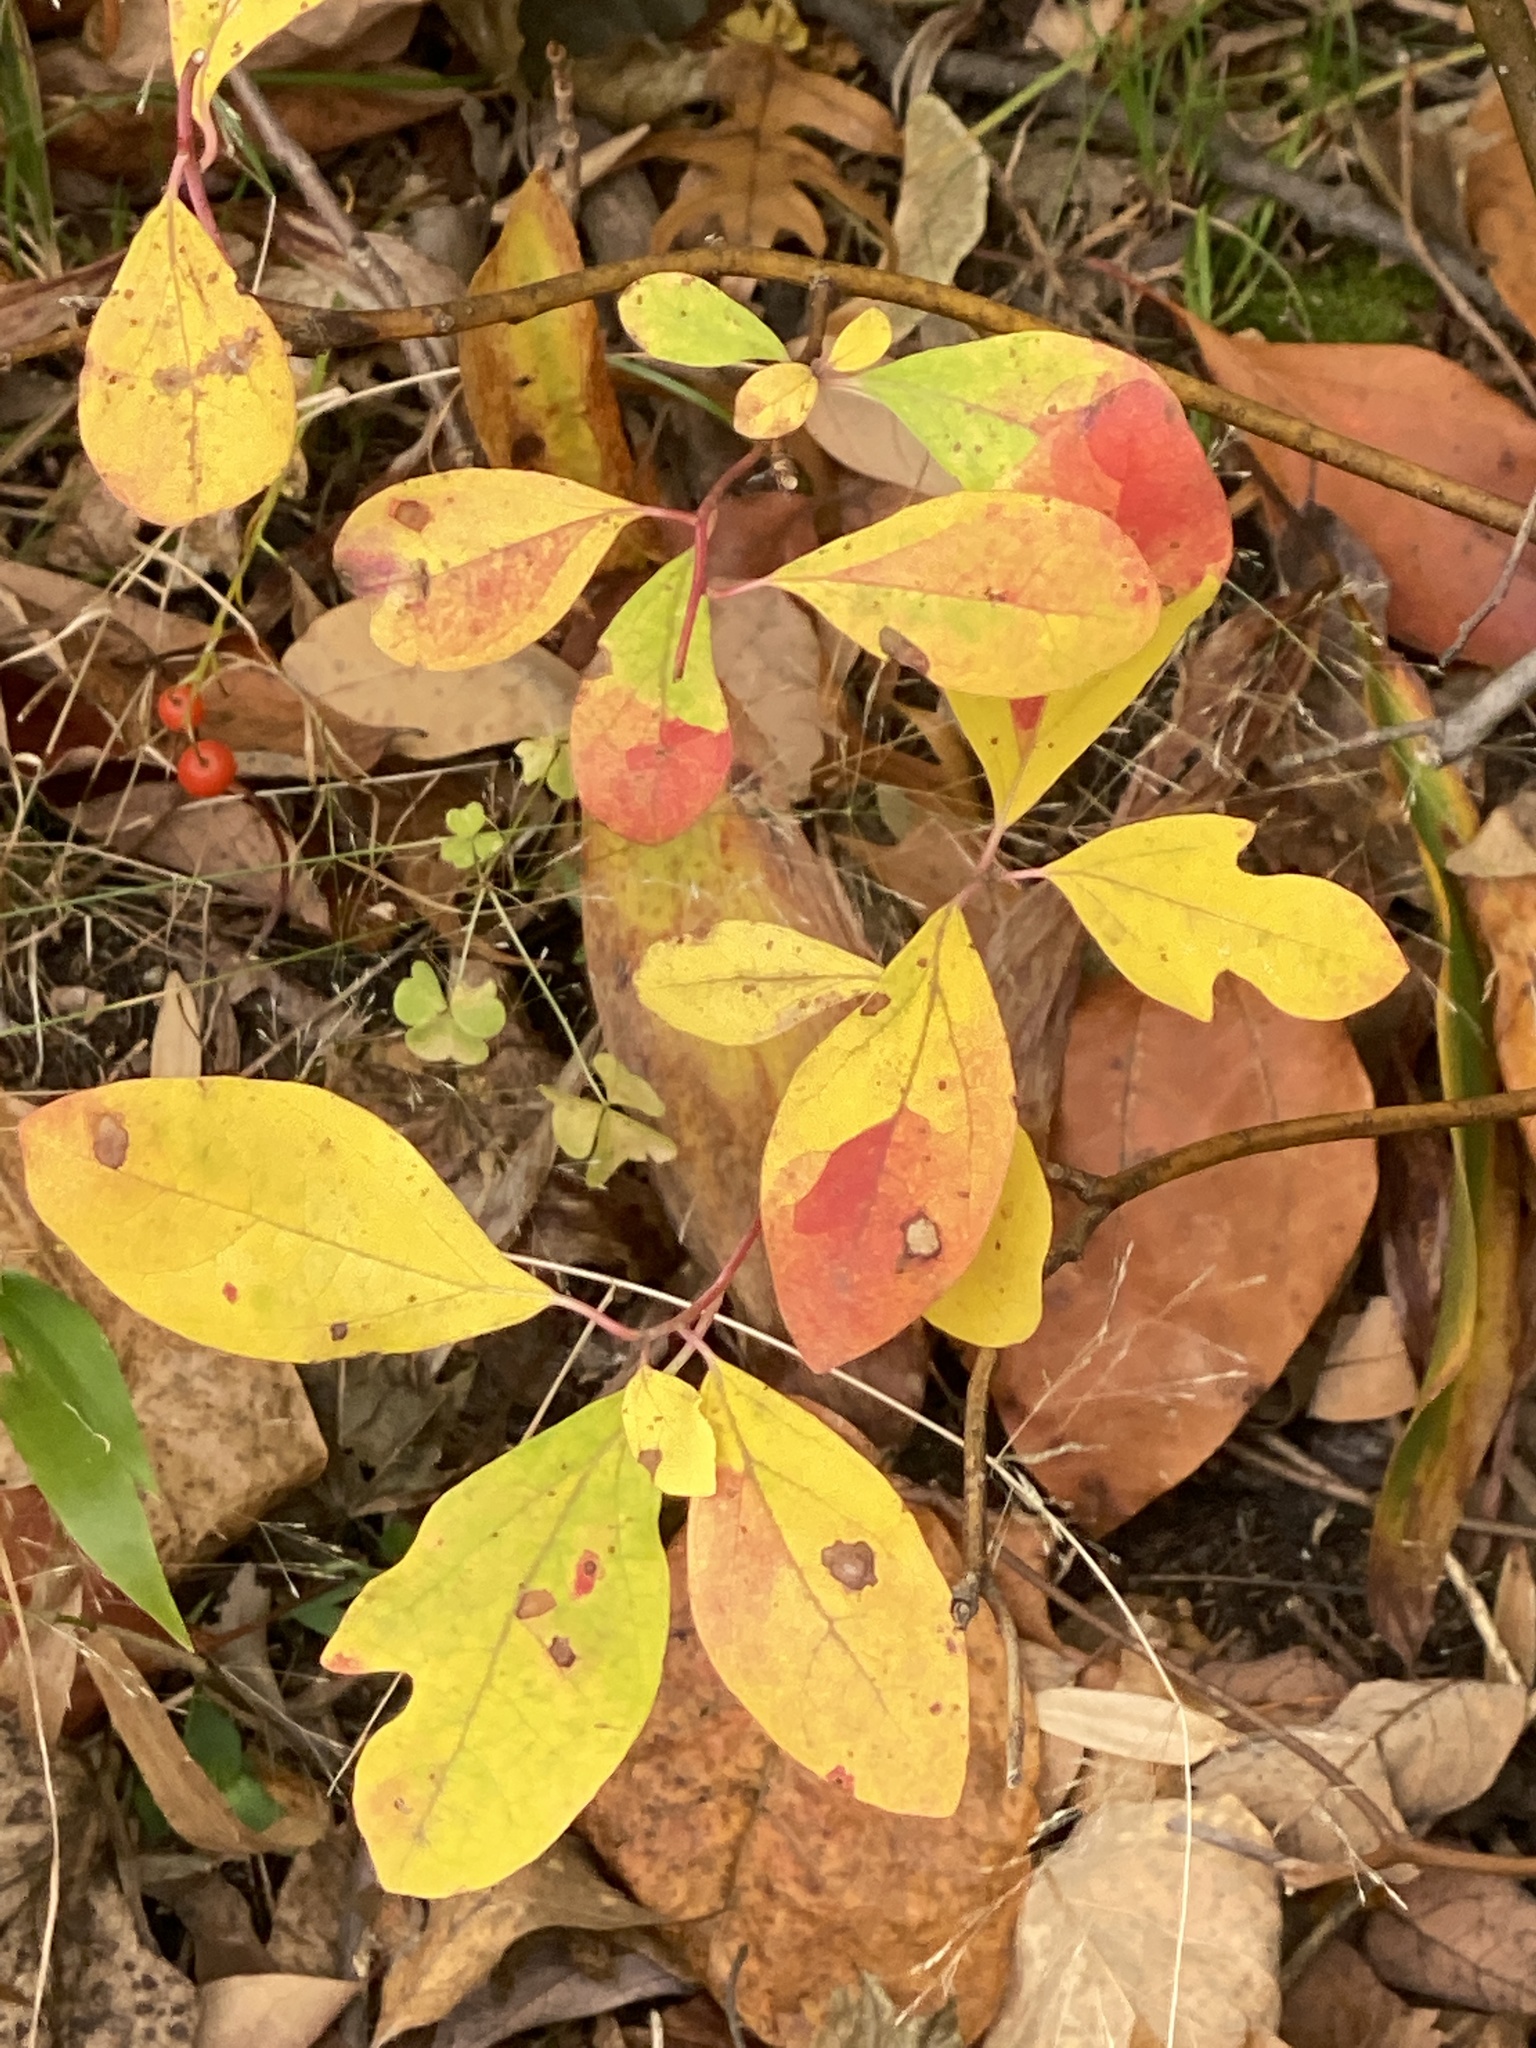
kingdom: Plantae
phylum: Tracheophyta
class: Magnoliopsida
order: Laurales
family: Lauraceae
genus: Sassafras
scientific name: Sassafras albidum
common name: Sassafras
